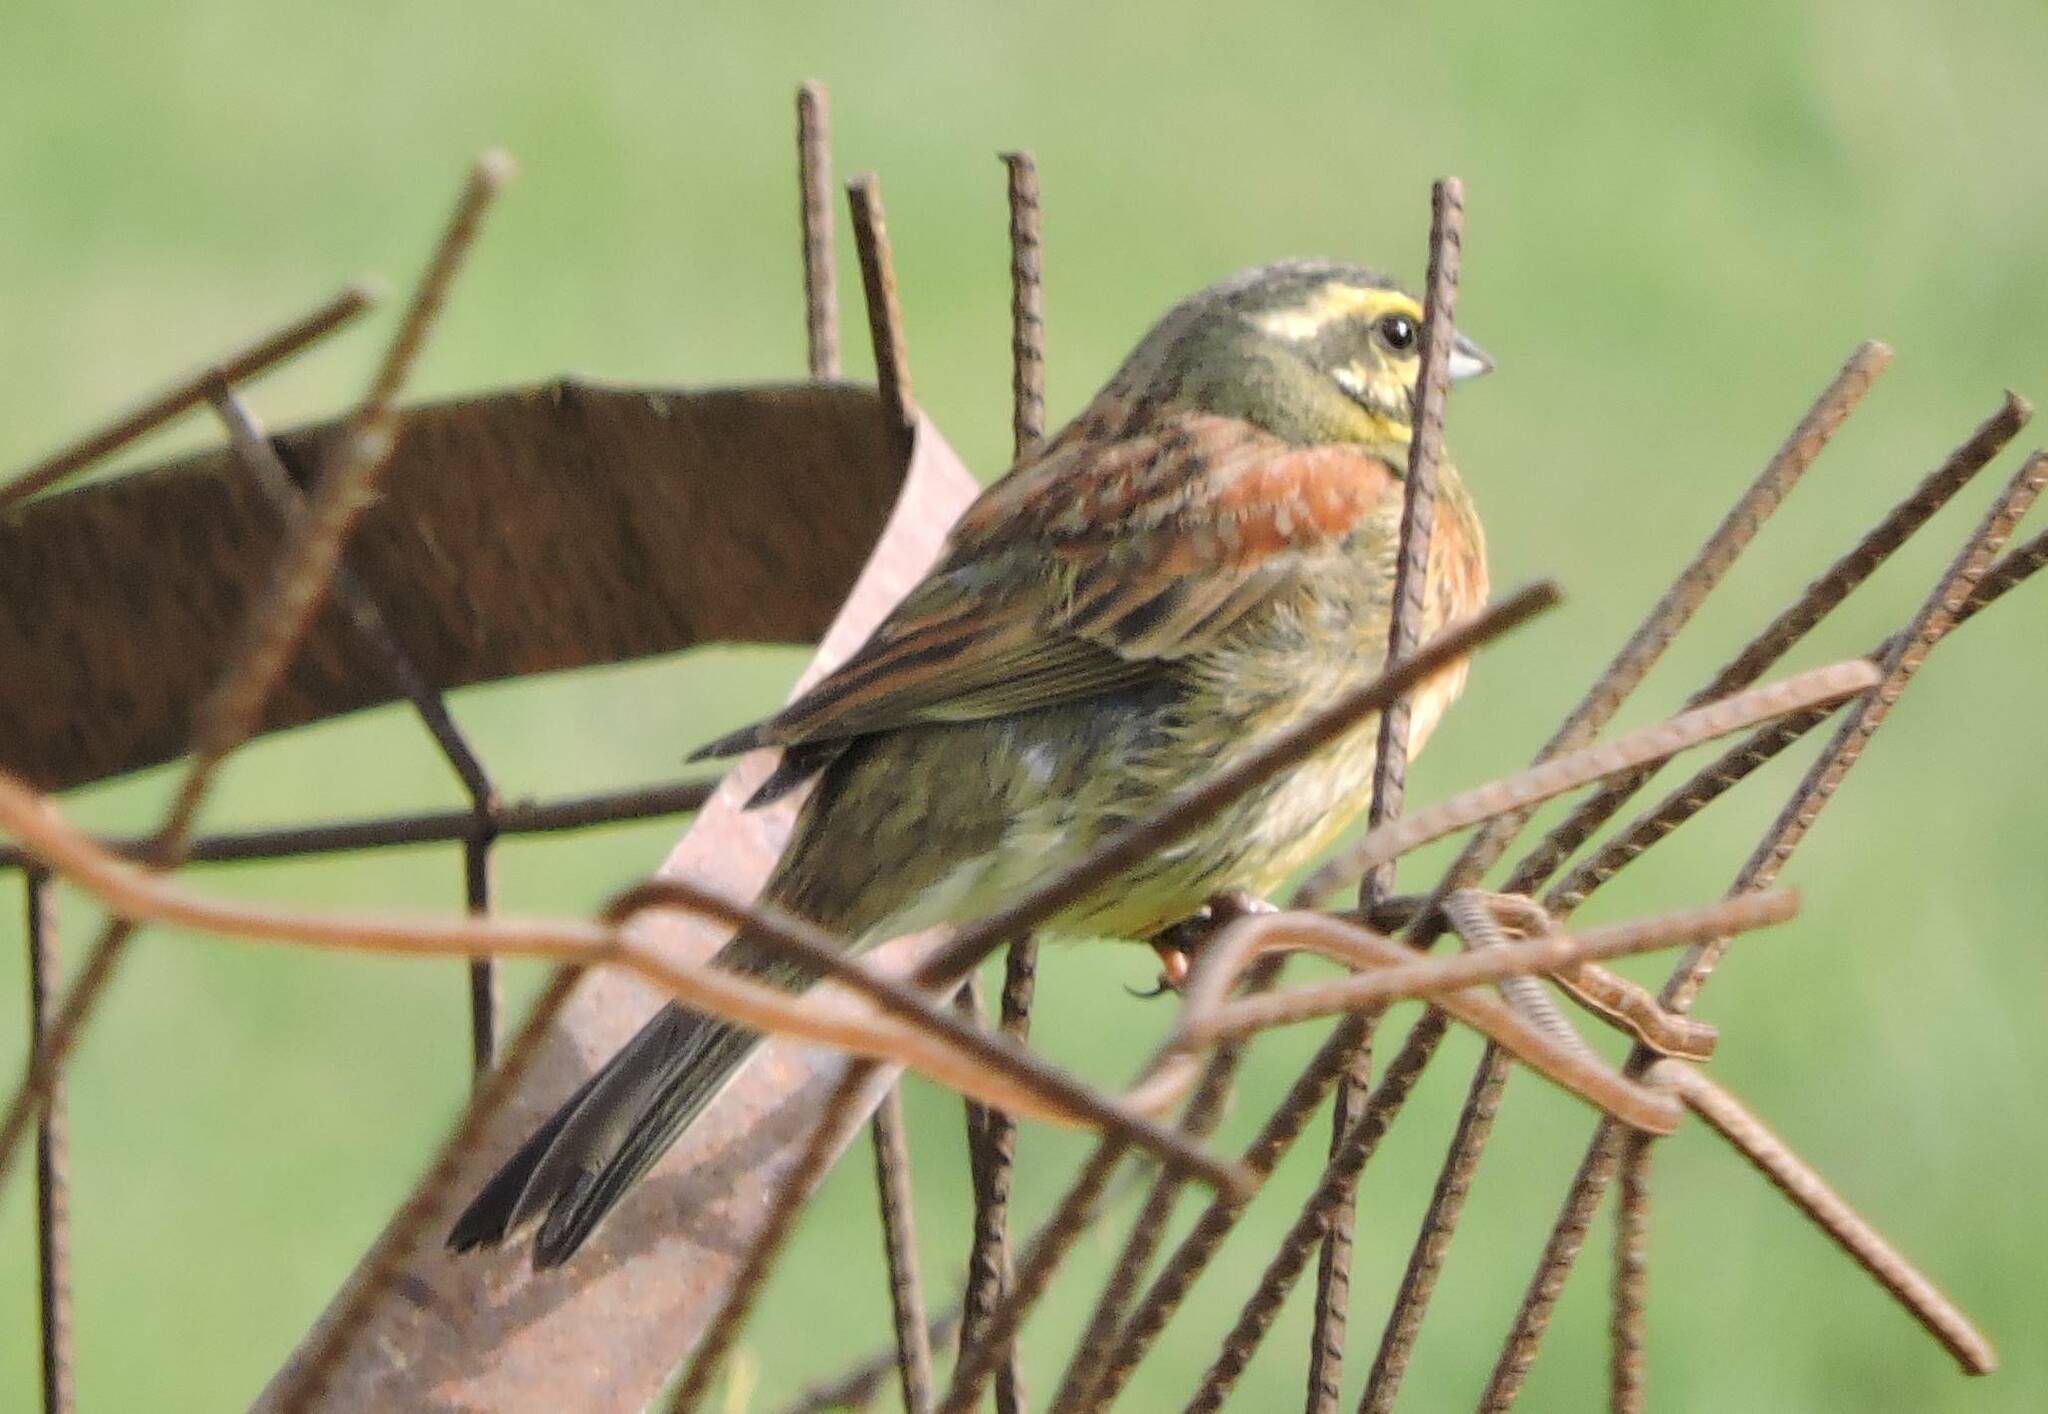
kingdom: Animalia
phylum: Chordata
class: Aves
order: Passeriformes
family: Emberizidae
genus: Emberiza
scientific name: Emberiza cirlus
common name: Cirl bunting
